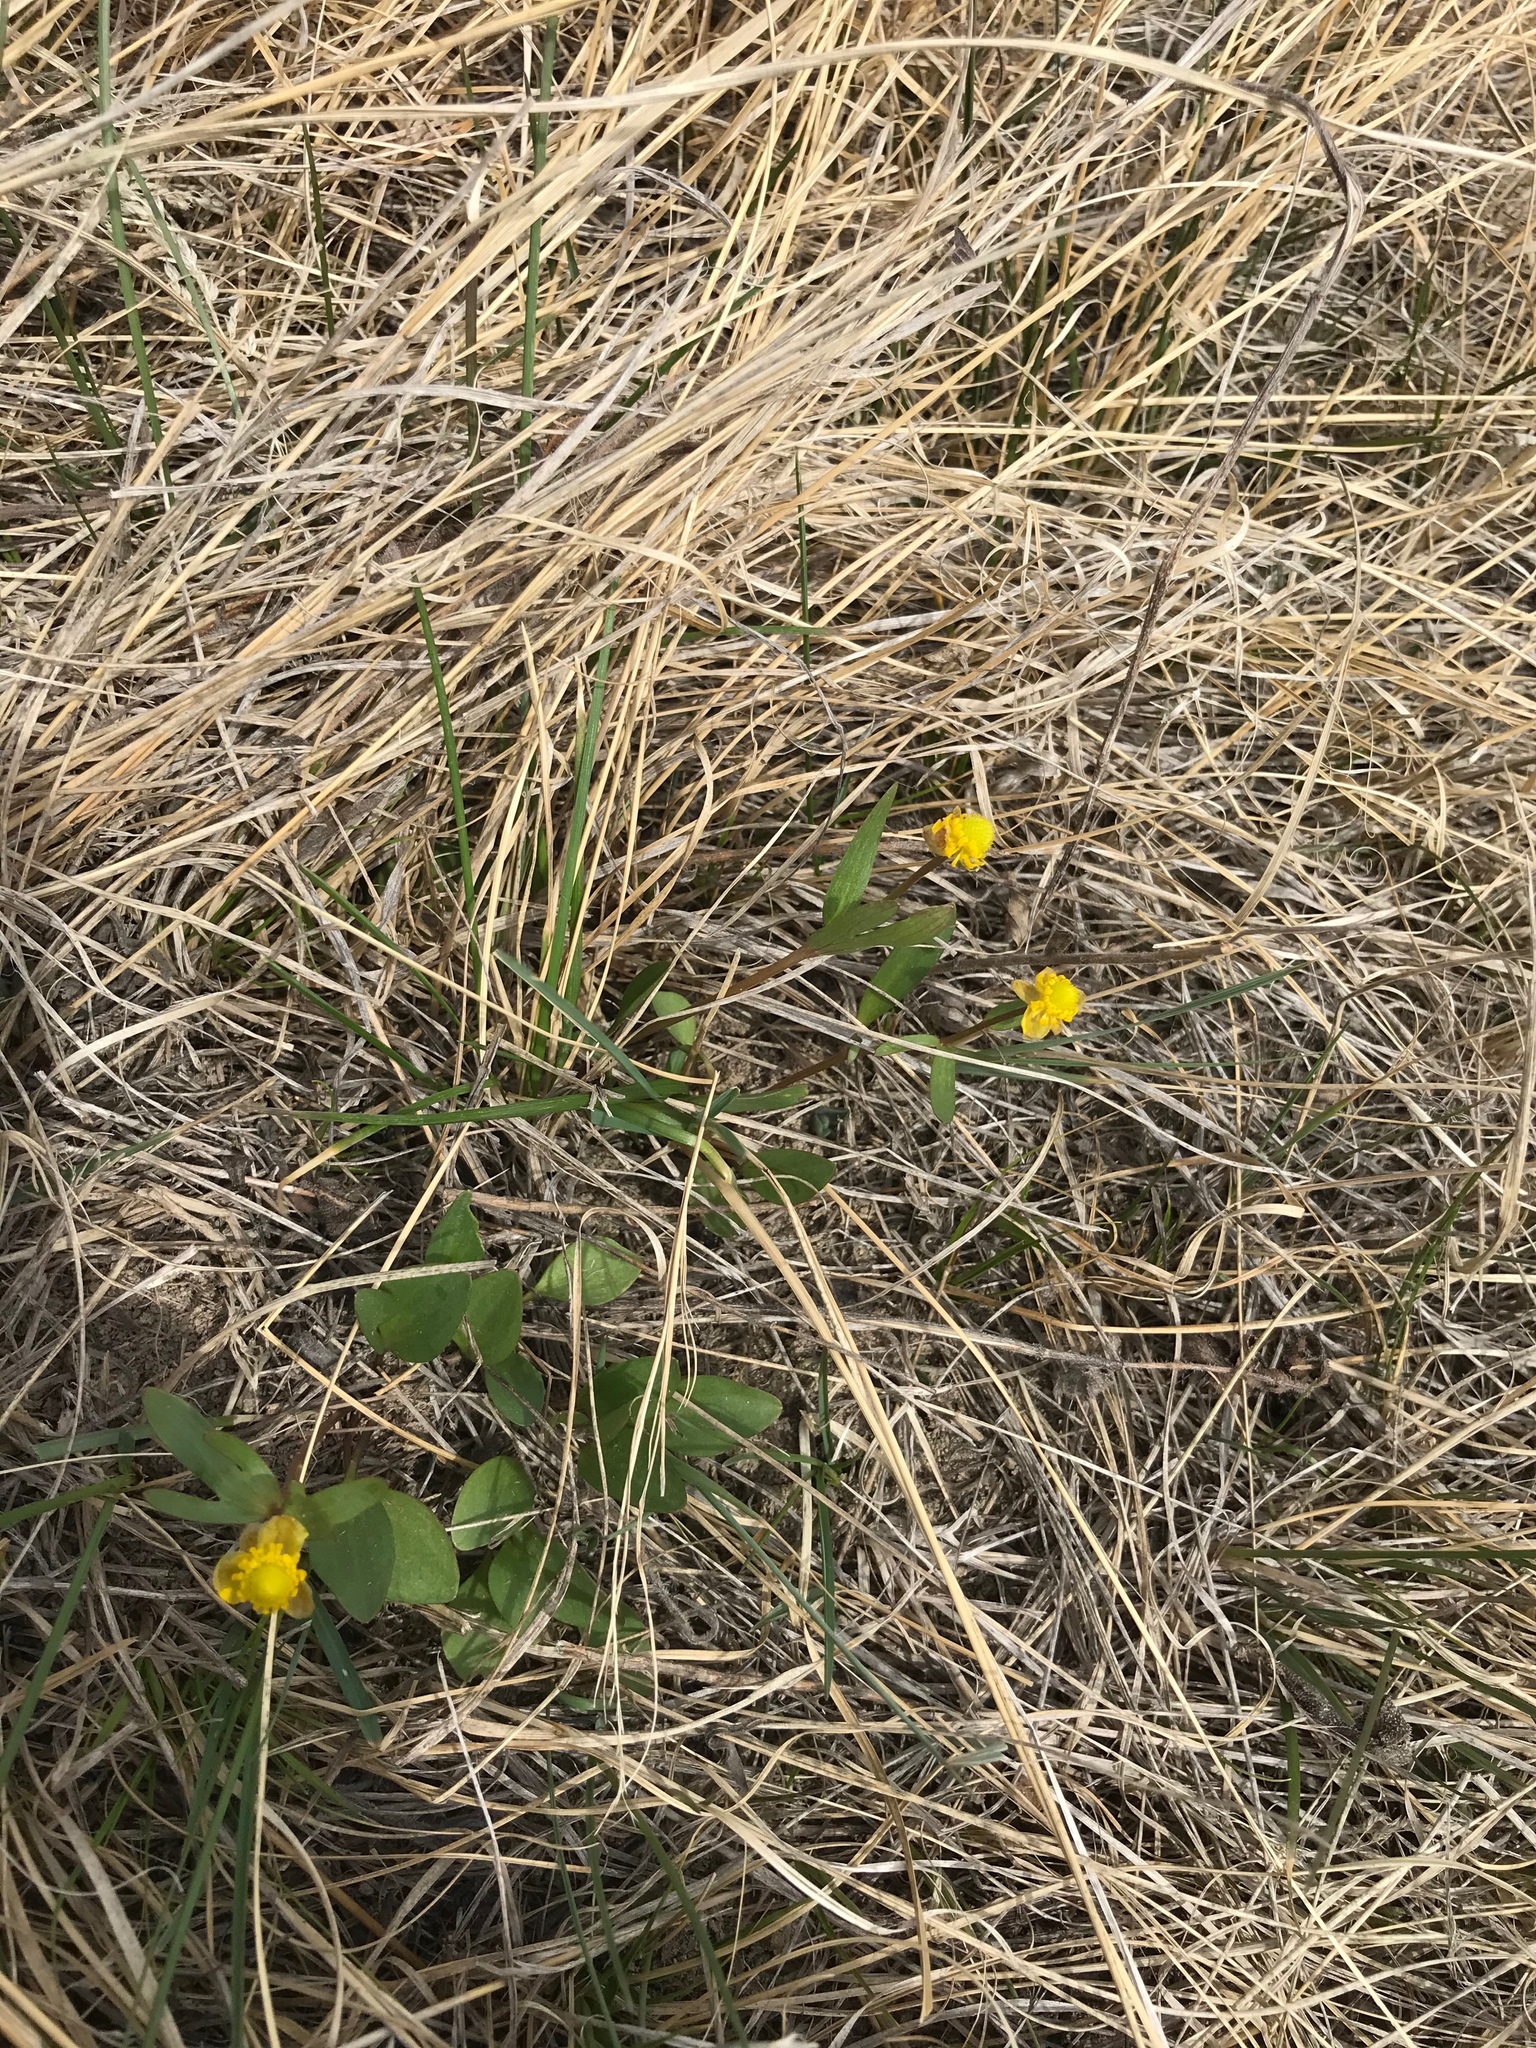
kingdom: Plantae
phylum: Tracheophyta
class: Magnoliopsida
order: Ranunculales
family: Ranunculaceae
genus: Ranunculus
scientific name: Ranunculus glaberrimus
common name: Sagebrush buttercup
